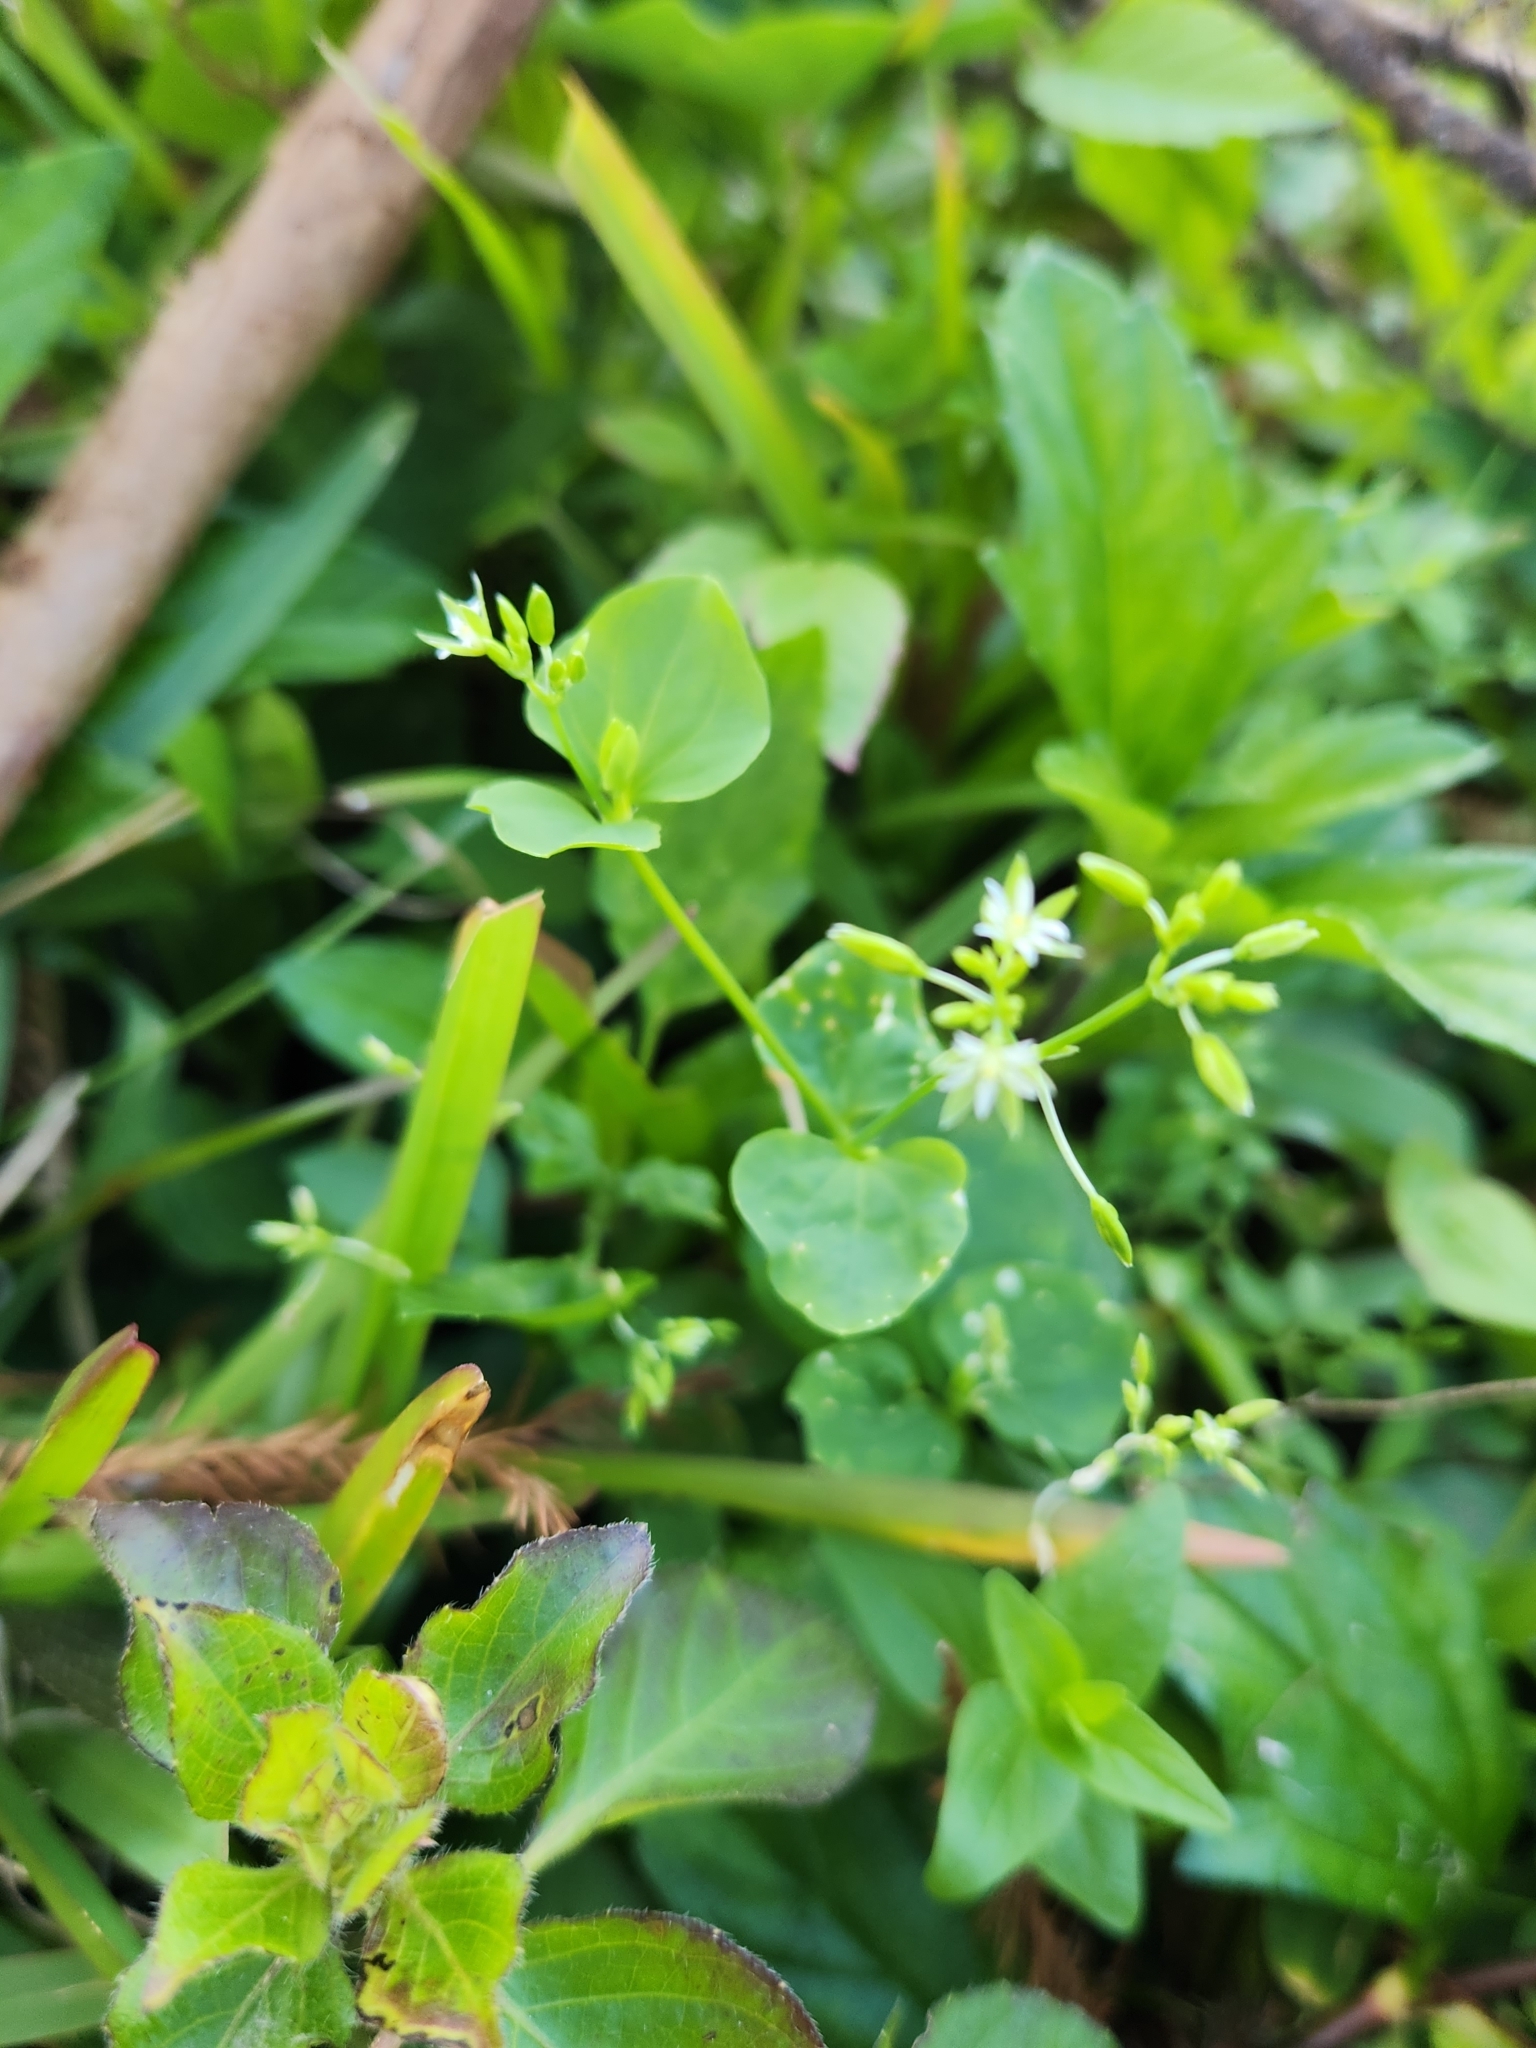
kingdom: Plantae
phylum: Tracheophyta
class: Magnoliopsida
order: Caryophyllales
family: Caryophyllaceae
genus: Drymaria
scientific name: Drymaria cordata
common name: Whitesnow
